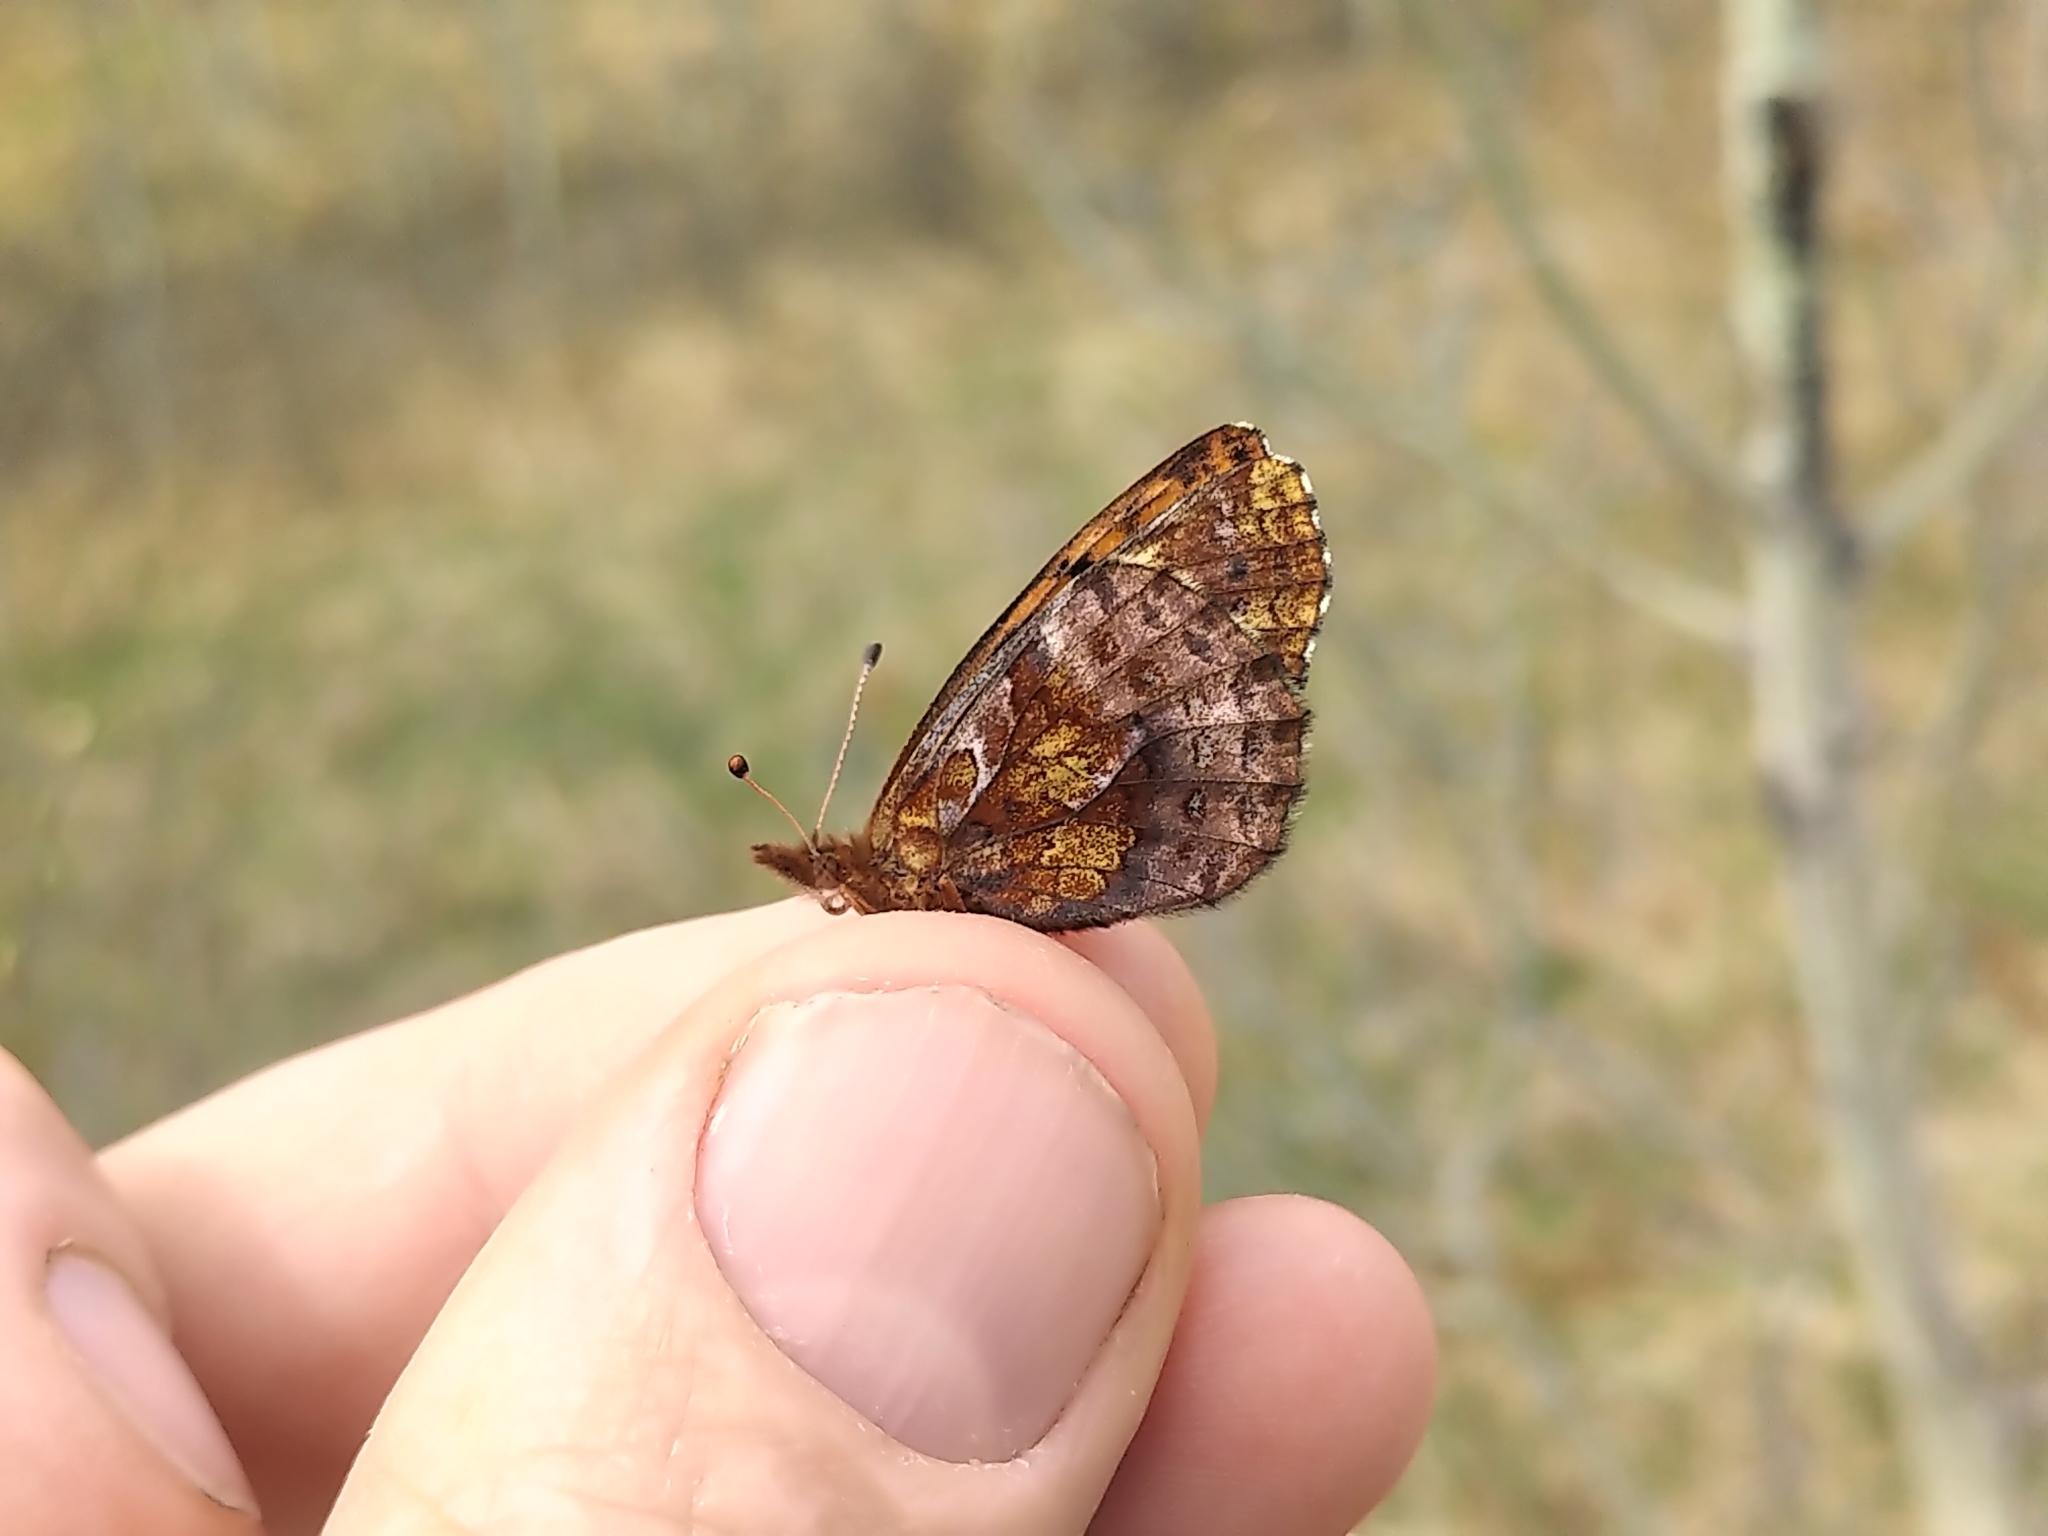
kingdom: Animalia
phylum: Arthropoda
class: Insecta
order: Lepidoptera
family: Nymphalidae
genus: Clossiana
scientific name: Clossiana toddi
